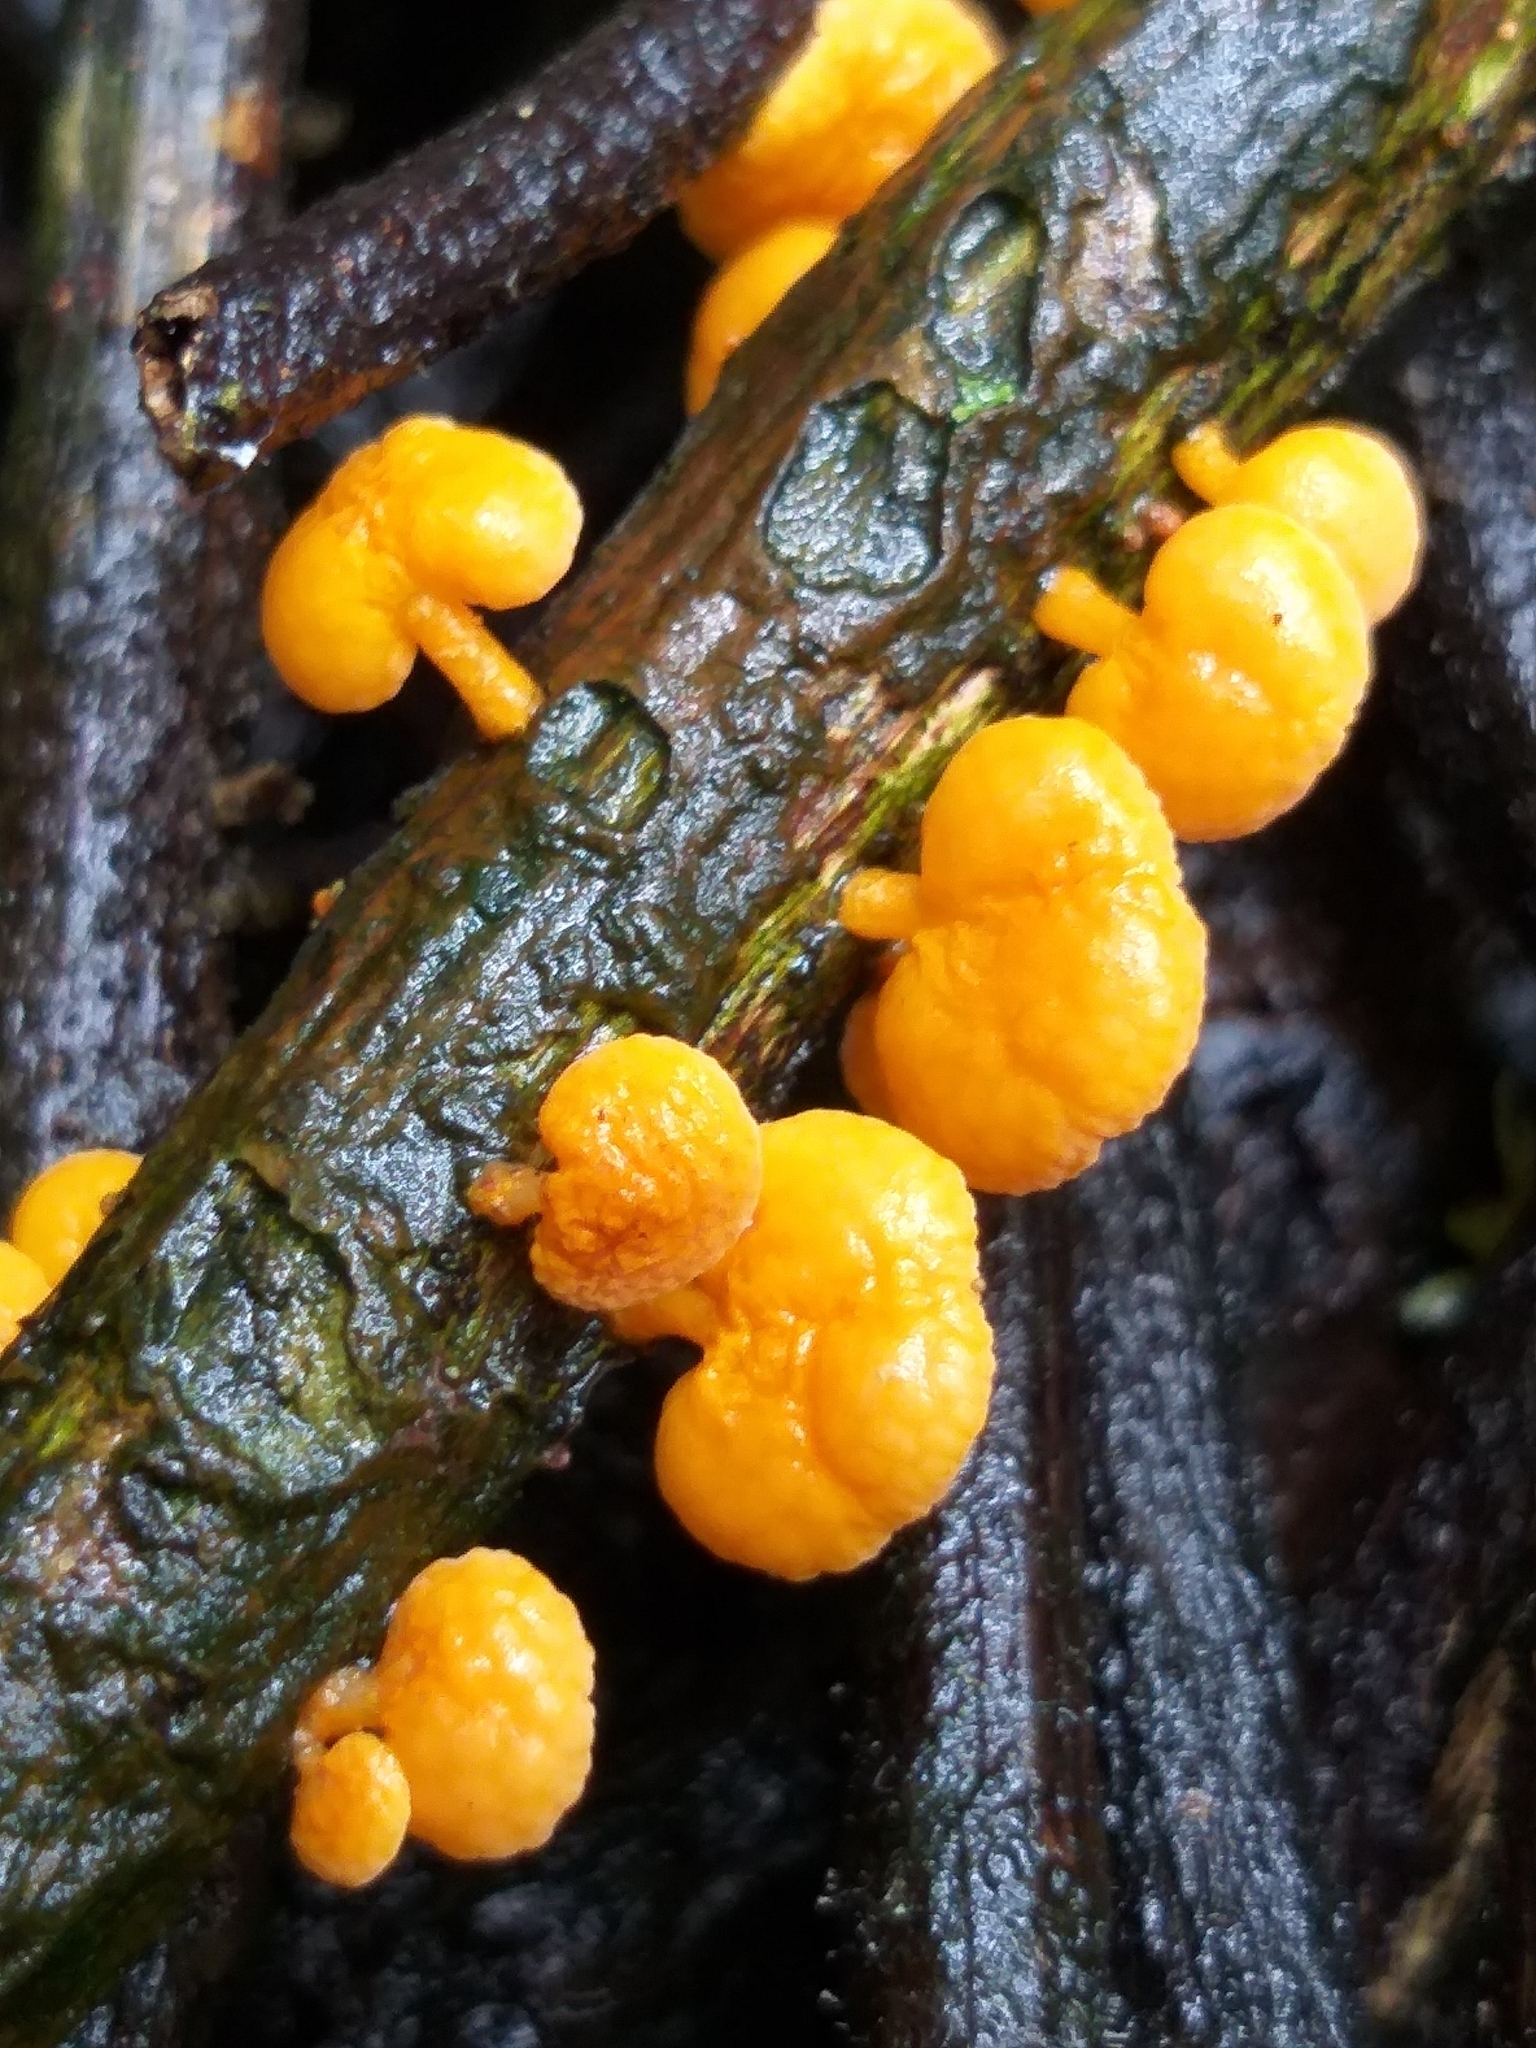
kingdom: Fungi
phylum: Basidiomycota
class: Agaricomycetes
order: Agaricales
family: Mycenaceae
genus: Favolaschia
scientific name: Favolaschia claudopus
